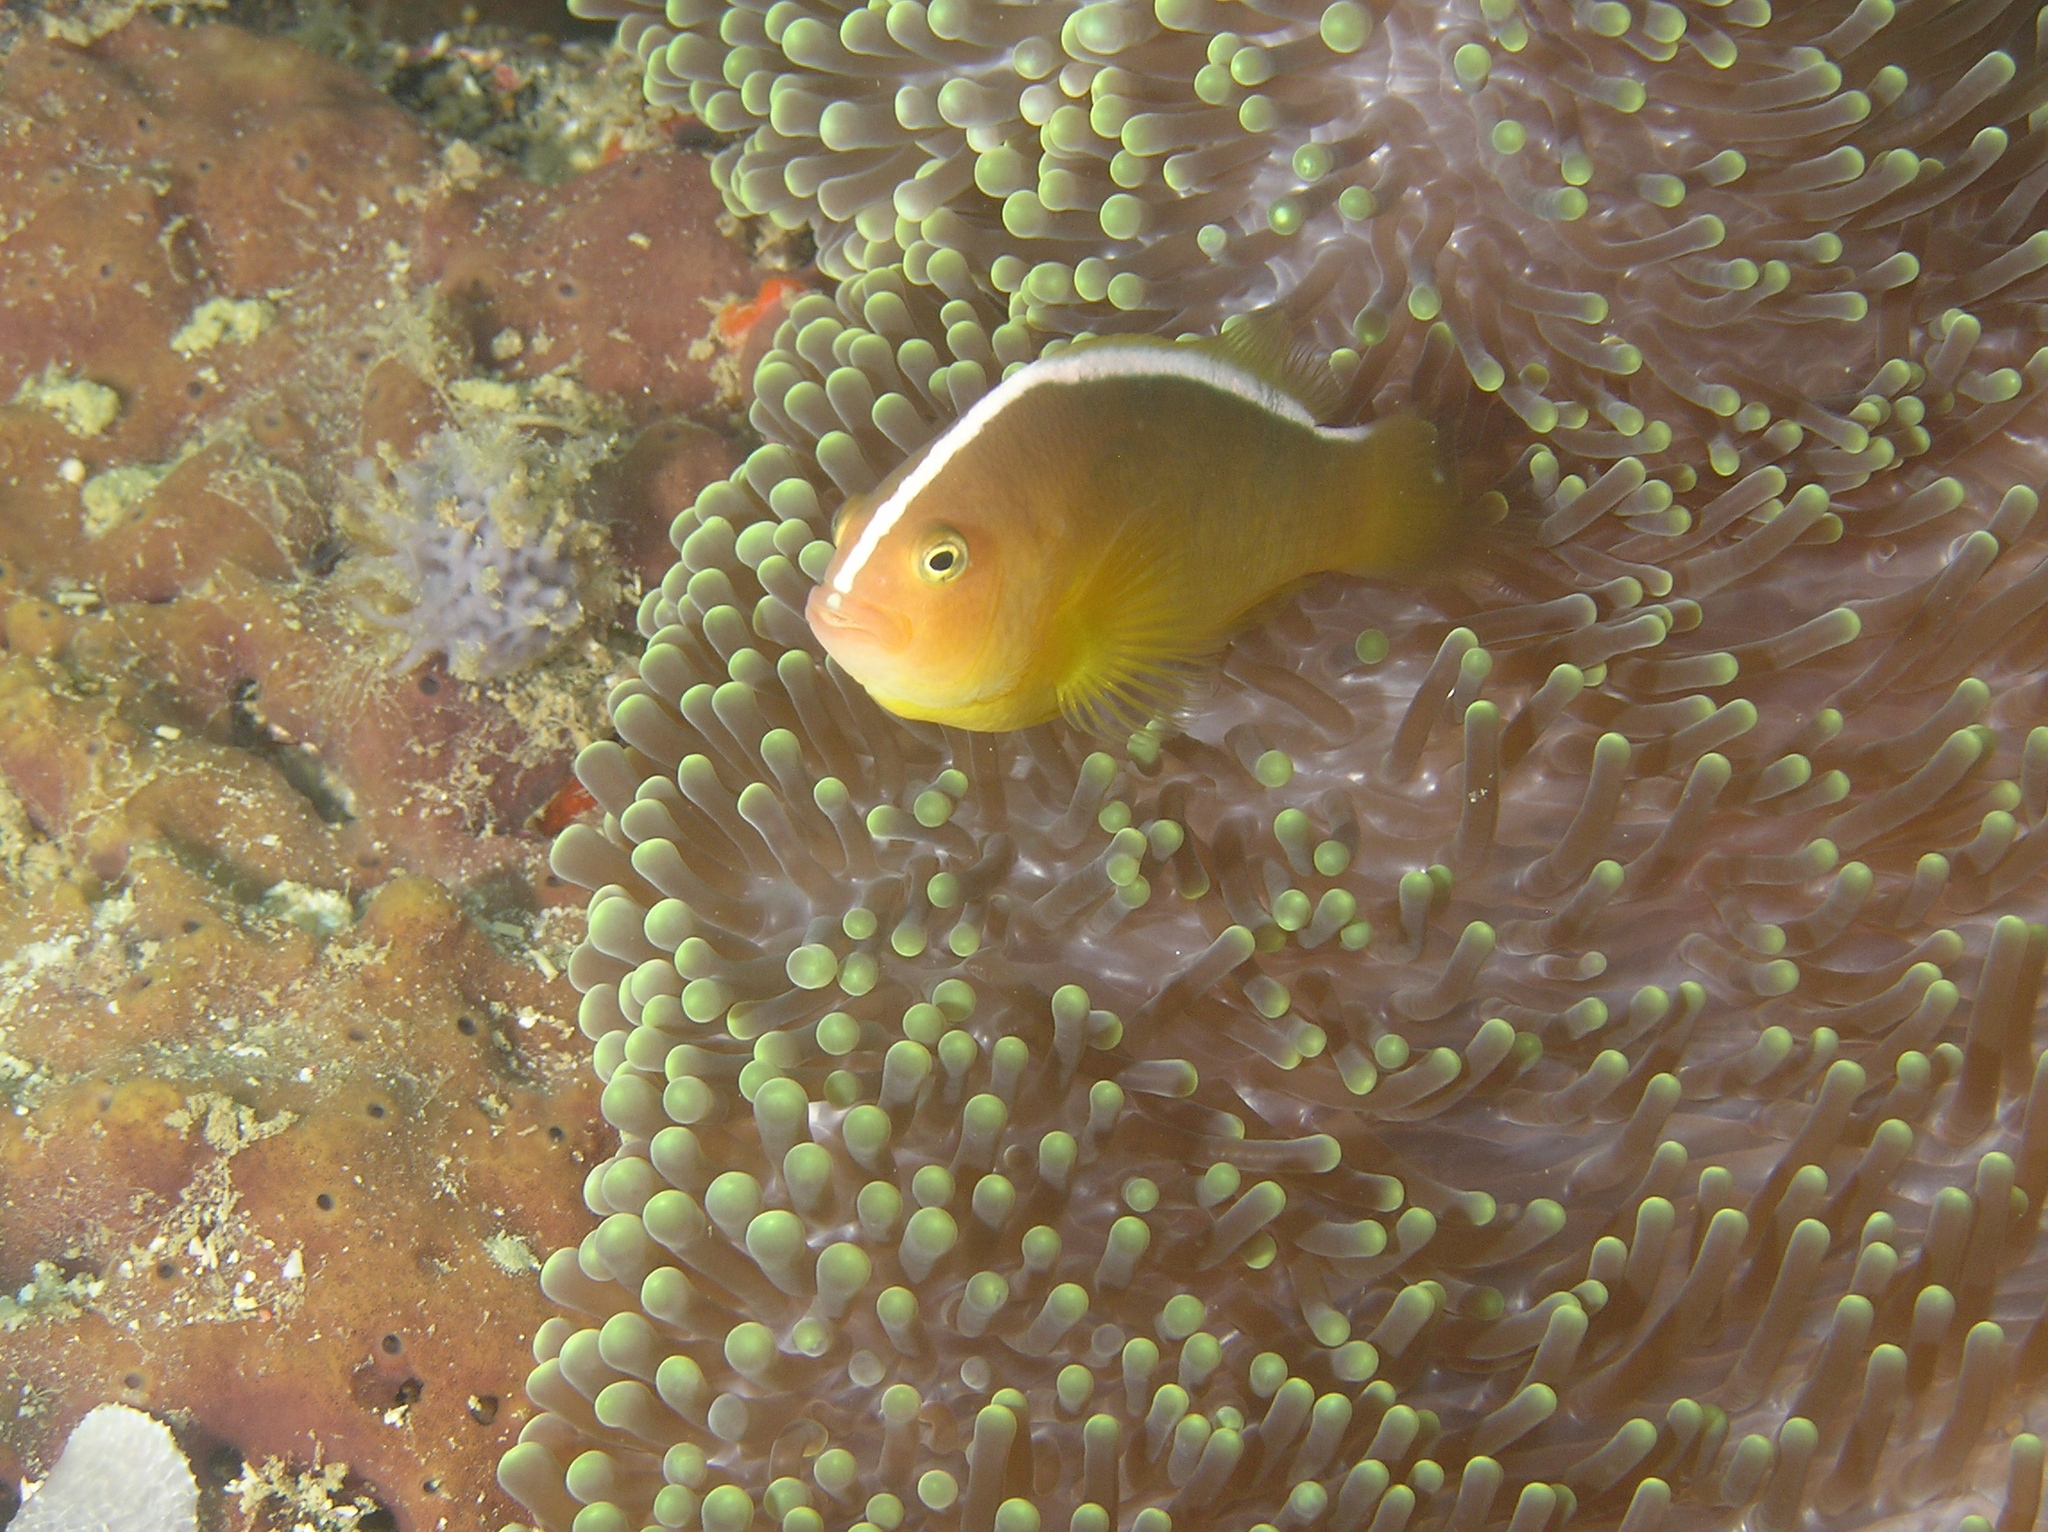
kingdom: Animalia
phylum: Chordata
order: Perciformes
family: Pomacentridae
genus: Amphiprion
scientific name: Amphiprion sandaracinos
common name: Orange anemonefish
